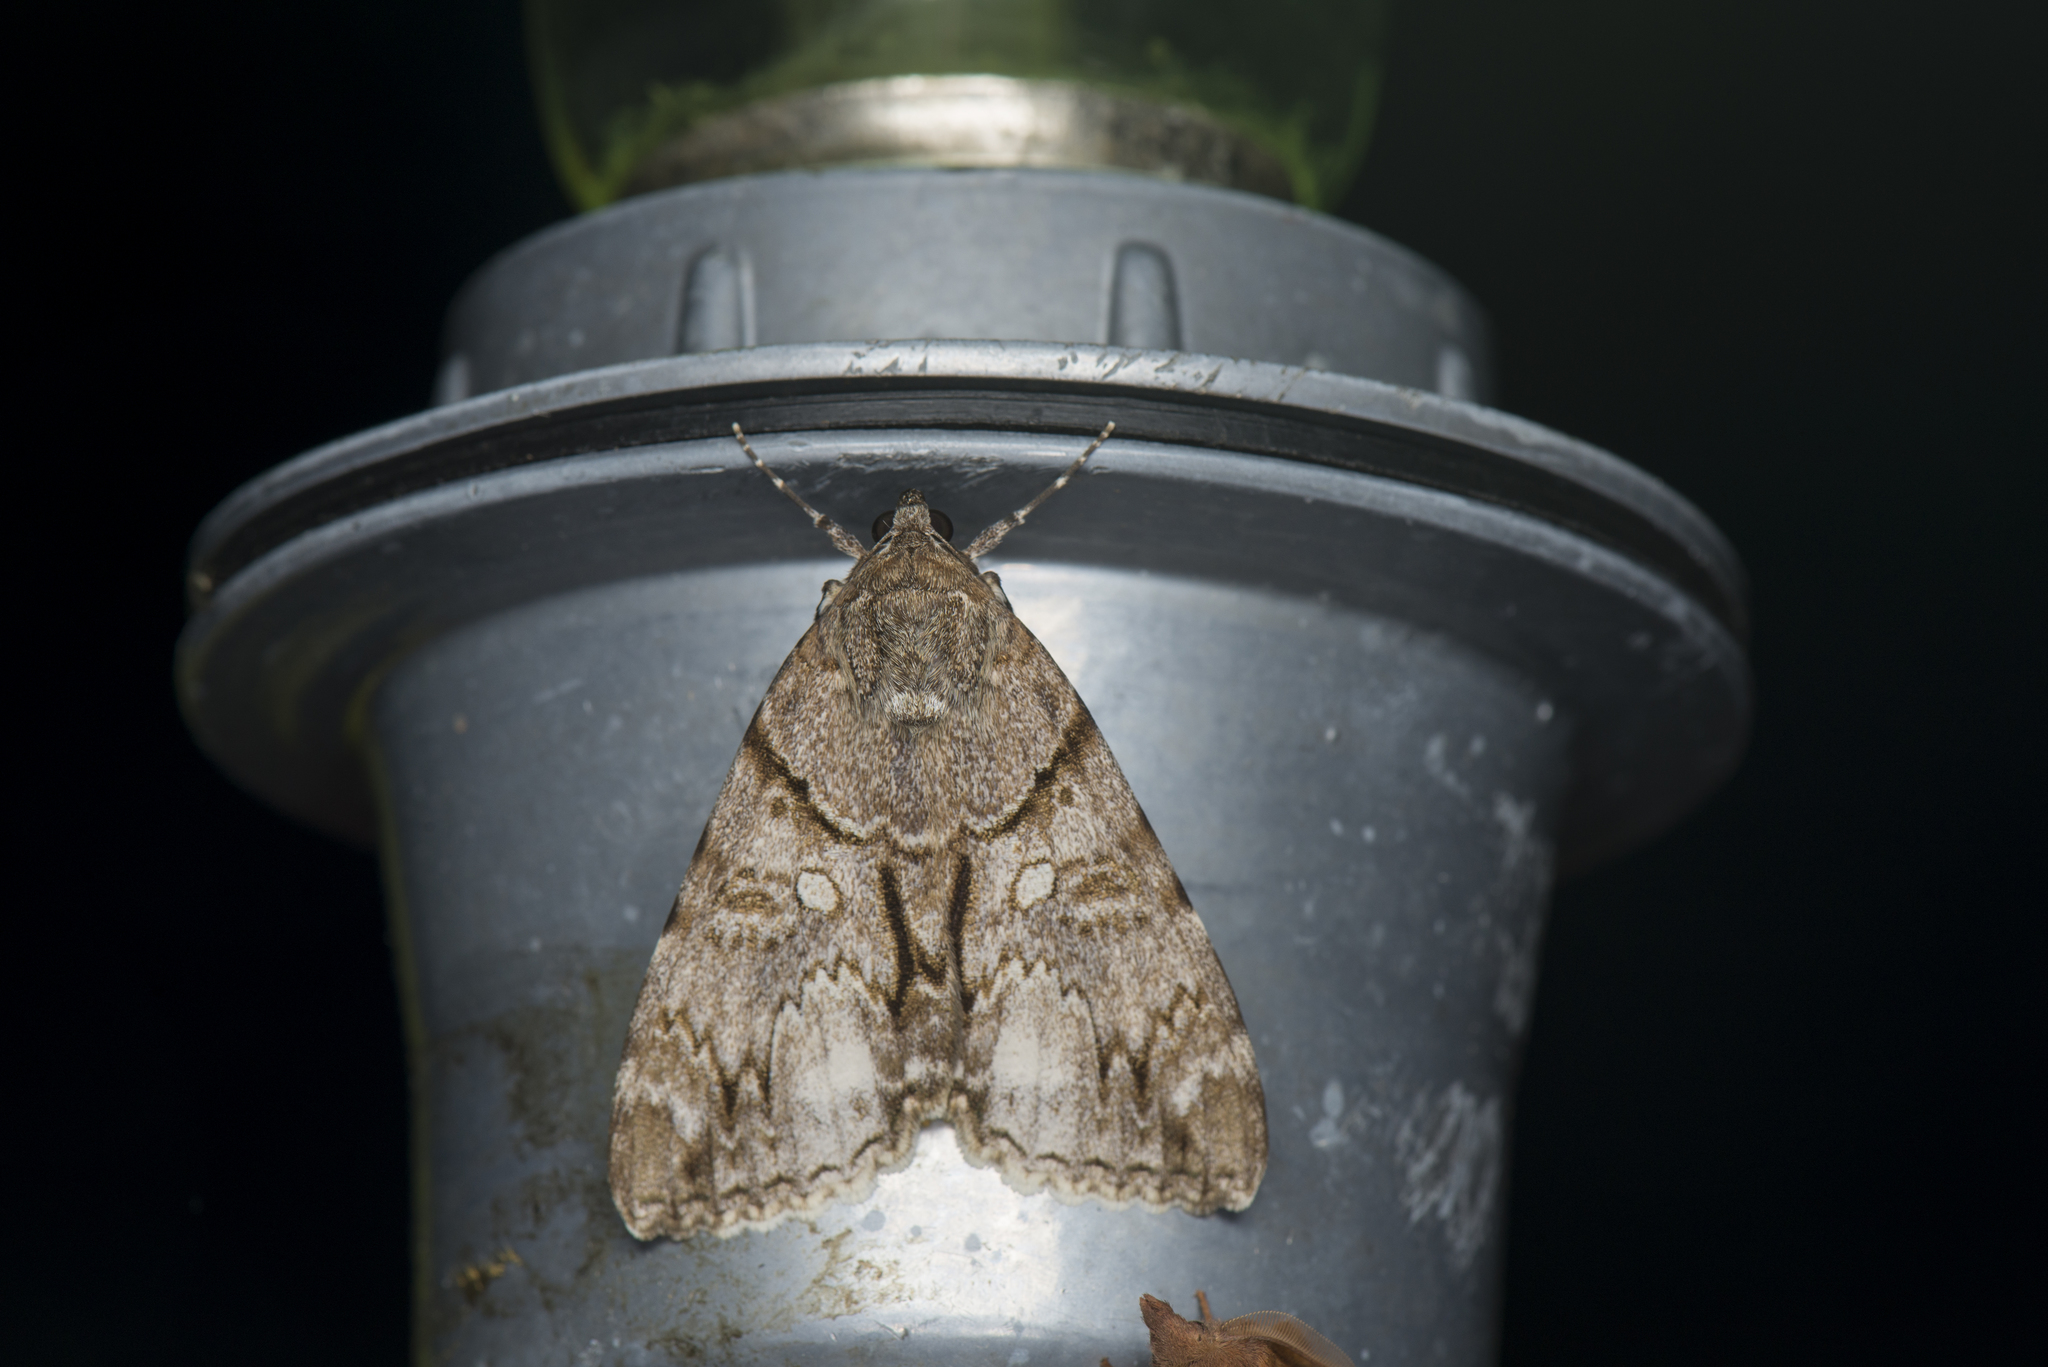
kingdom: Animalia
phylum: Arthropoda
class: Insecta
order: Lepidoptera
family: Erebidae
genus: Catocala
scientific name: Catocala wushensis
